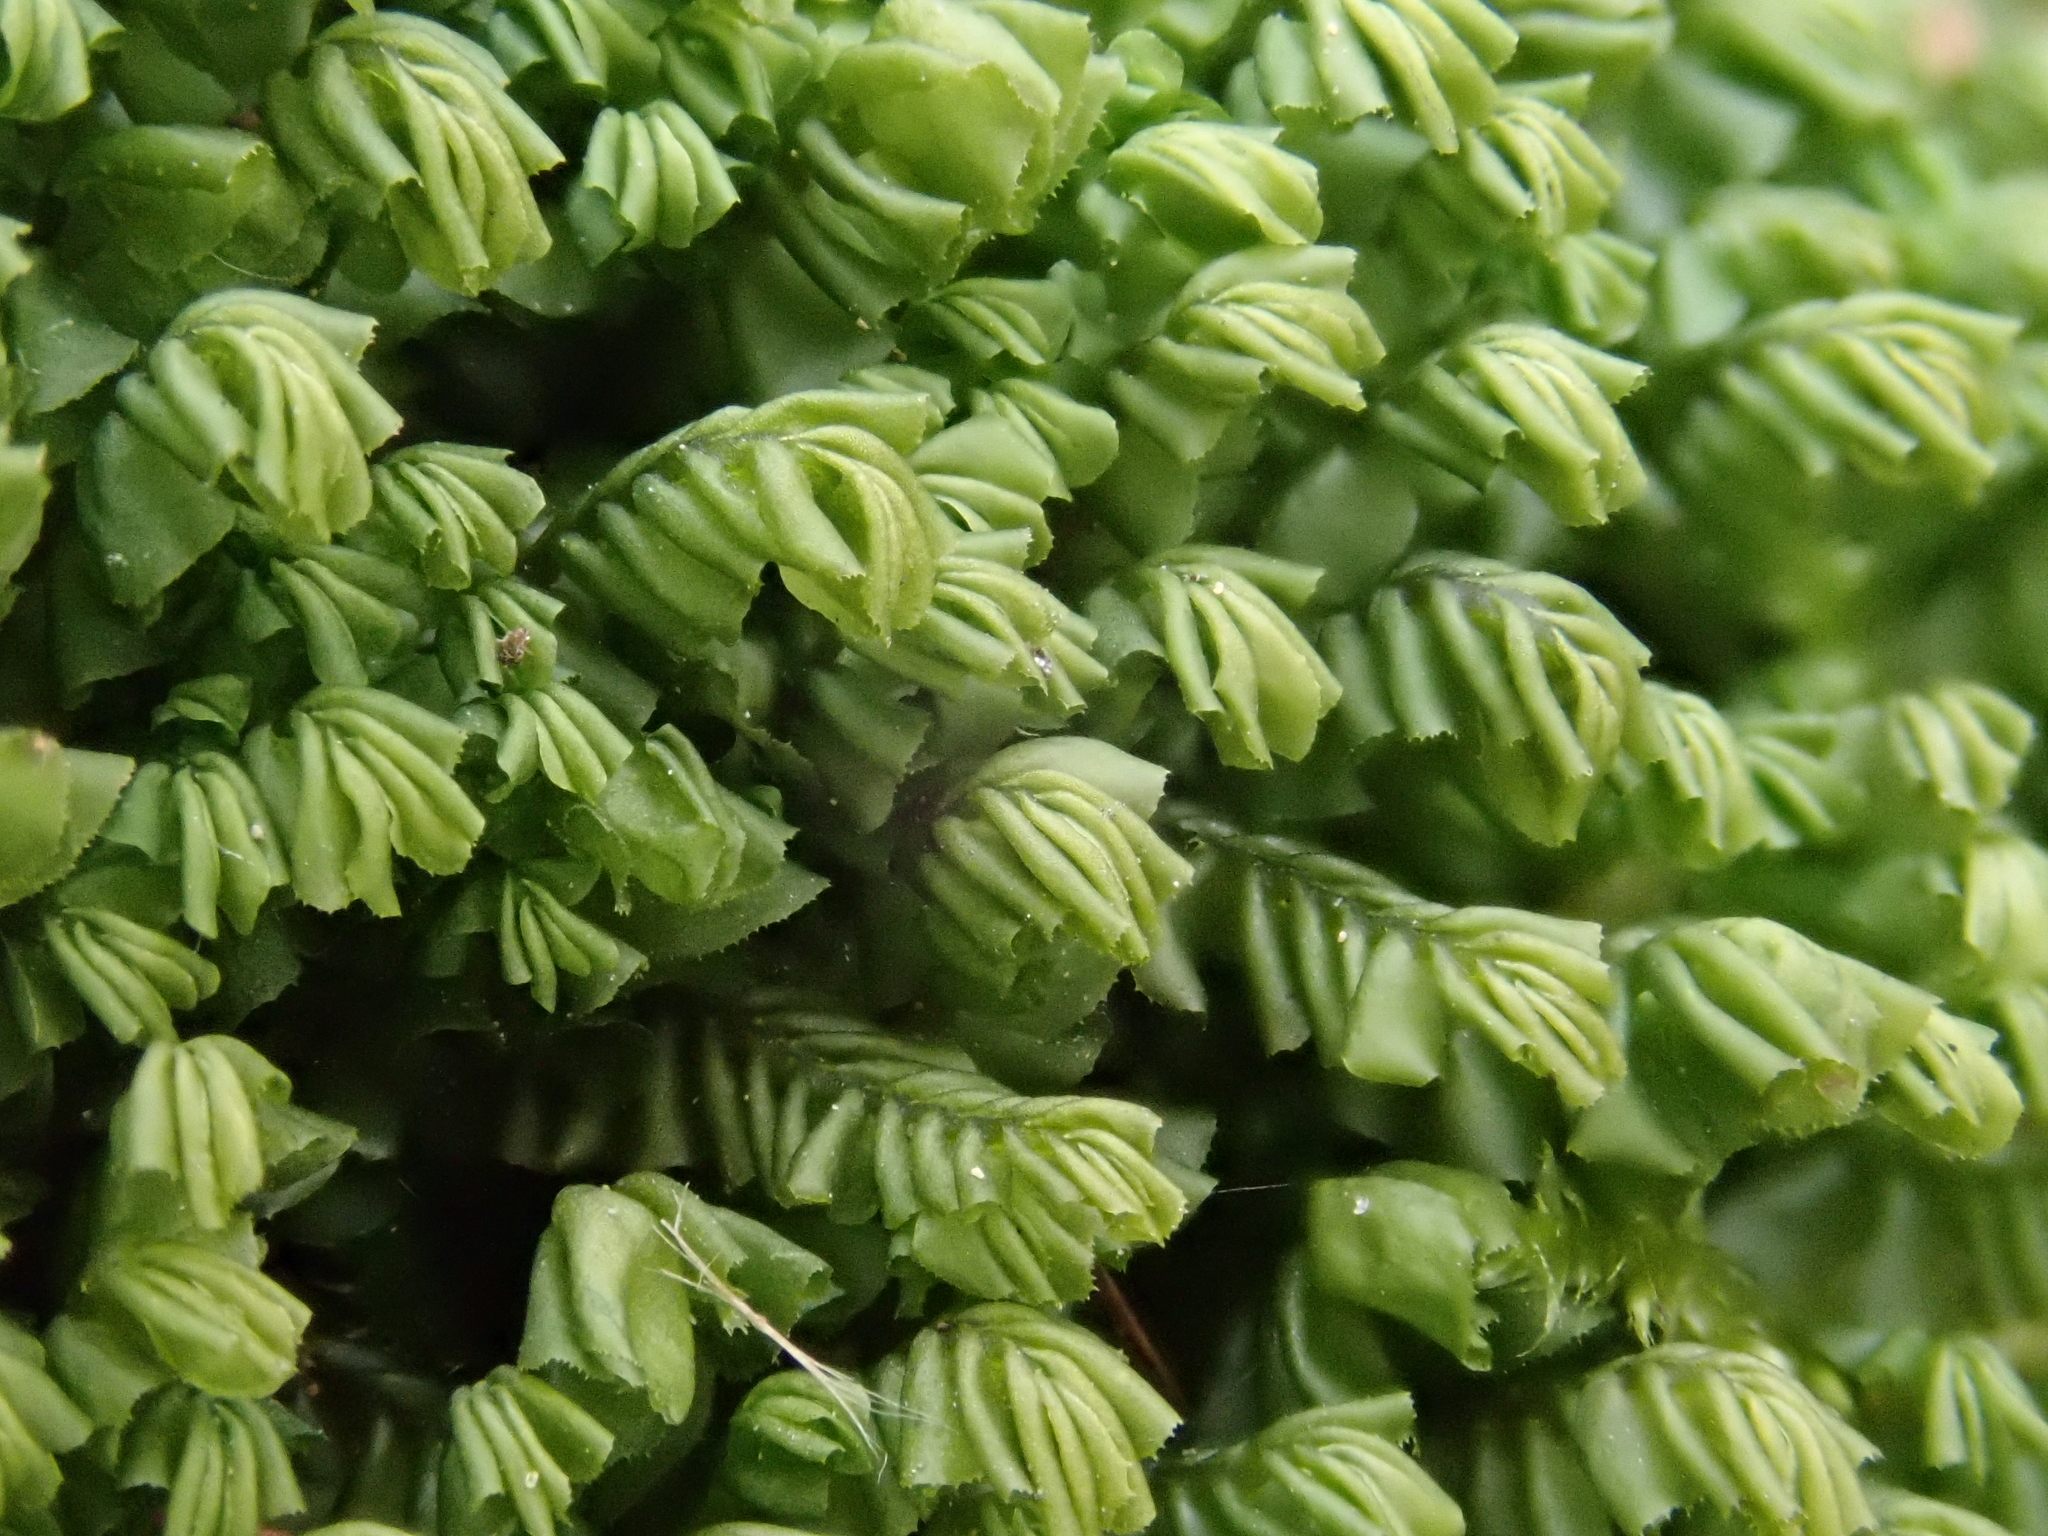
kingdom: Plantae
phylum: Marchantiophyta
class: Jungermanniopsida
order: Jungermanniales
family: Plagiochilaceae
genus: Plagiochila
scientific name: Plagiochila asplenioides
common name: Greater featherwort
